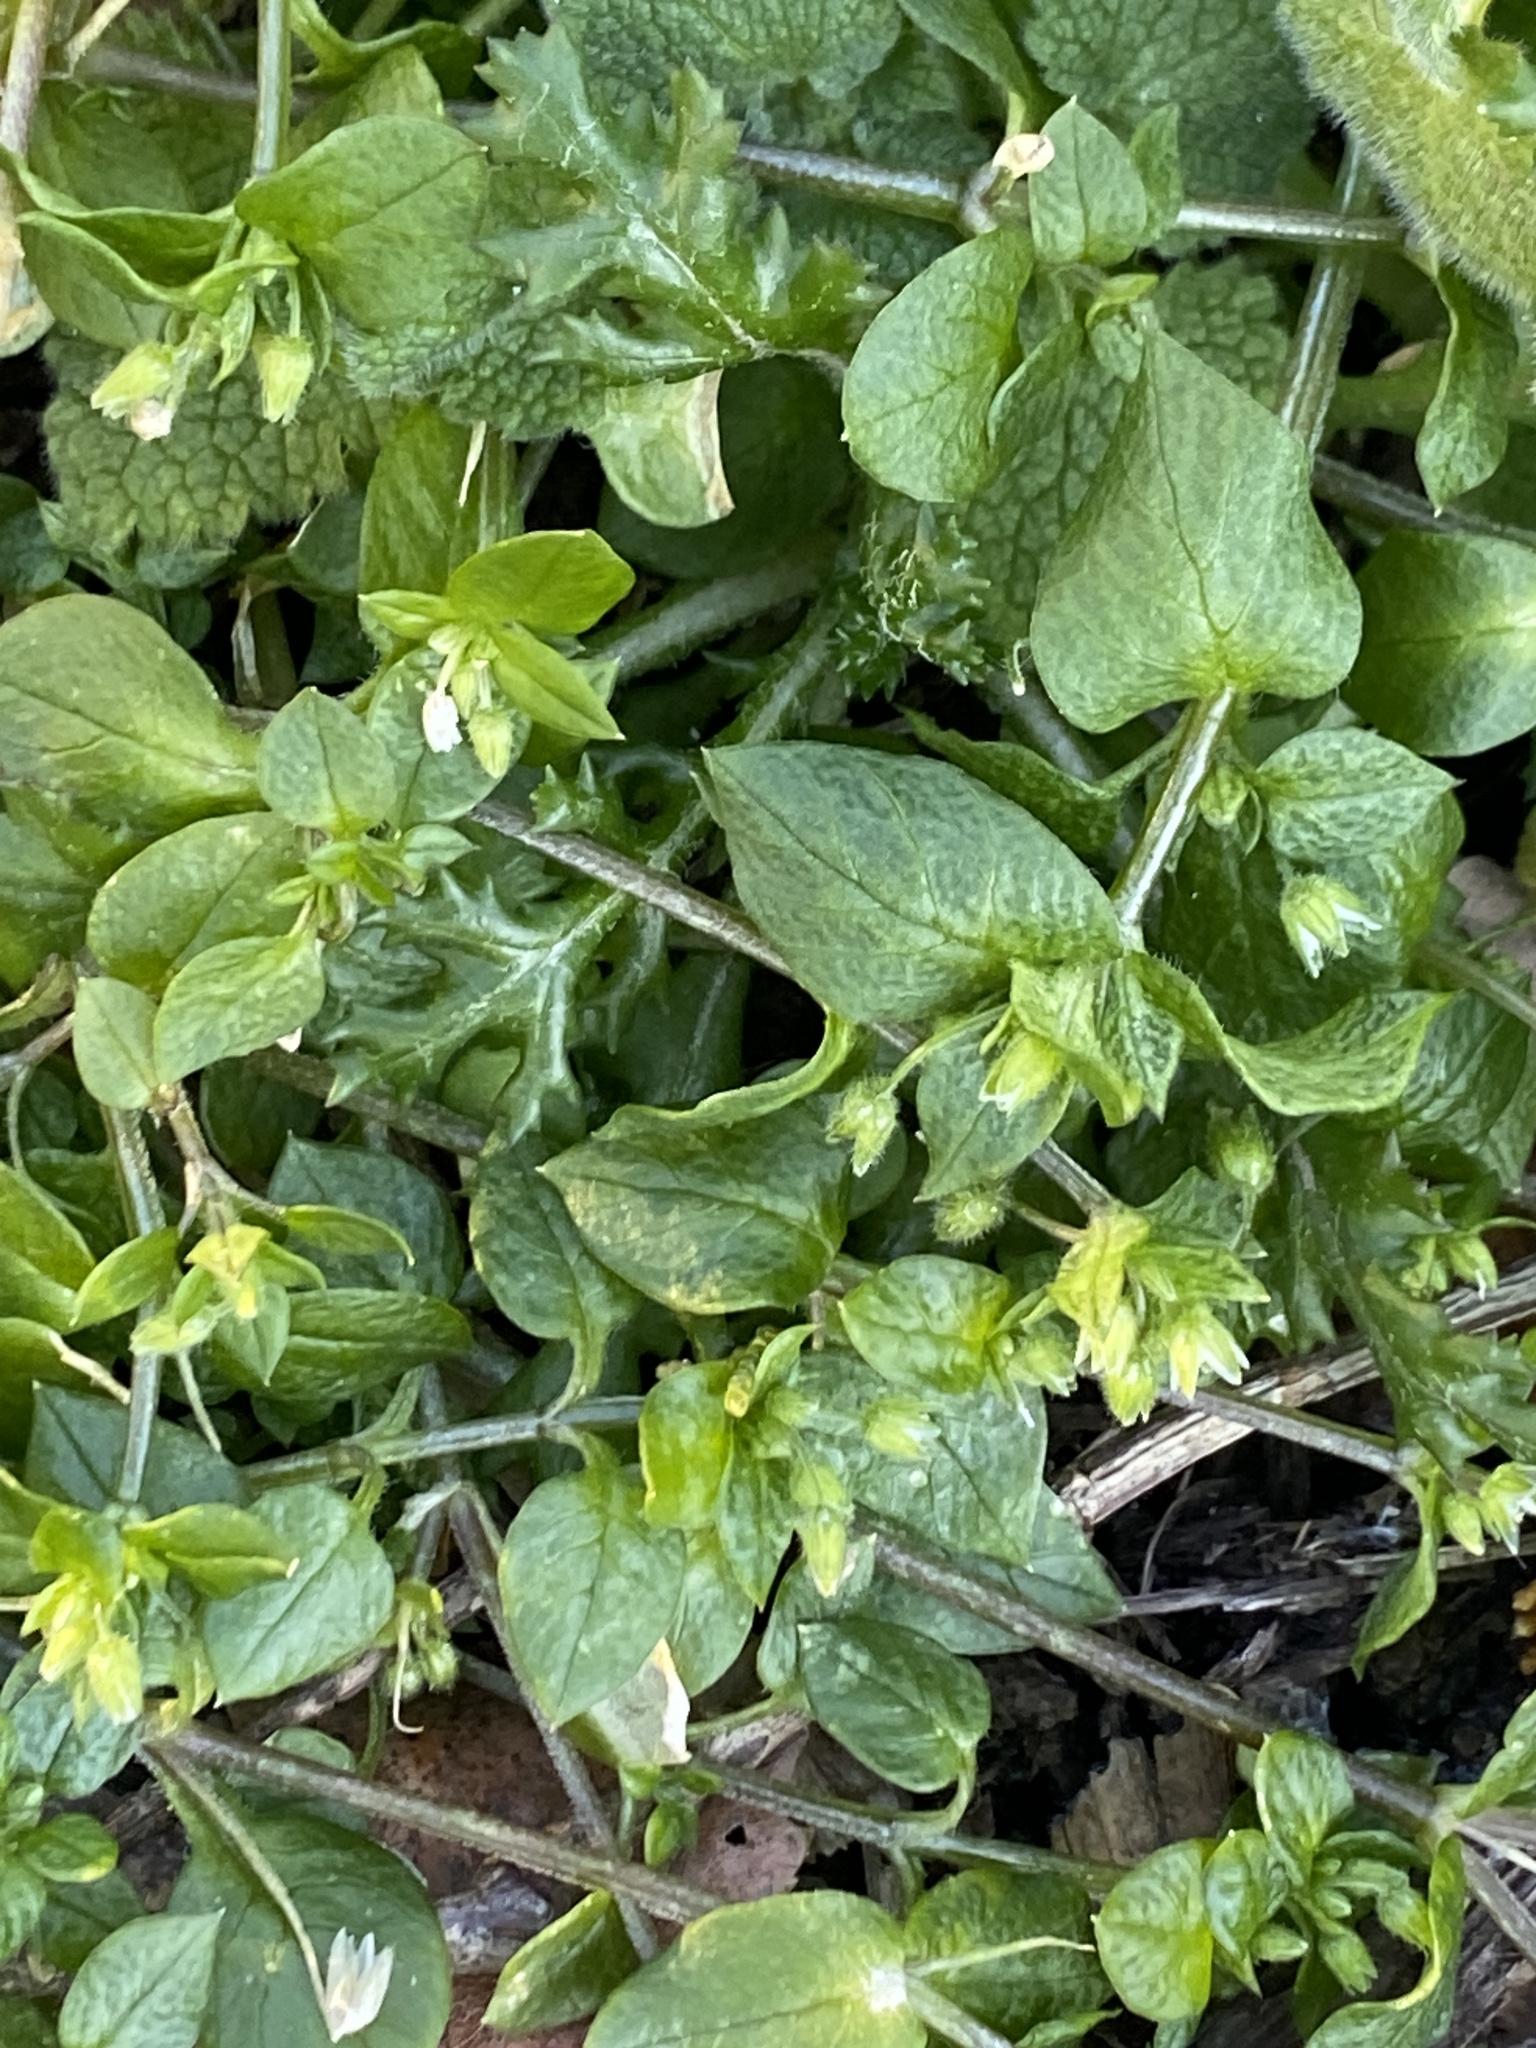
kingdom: Plantae
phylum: Tracheophyta
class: Magnoliopsida
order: Caryophyllales
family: Caryophyllaceae
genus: Stellaria
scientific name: Stellaria media
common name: Common chickweed
